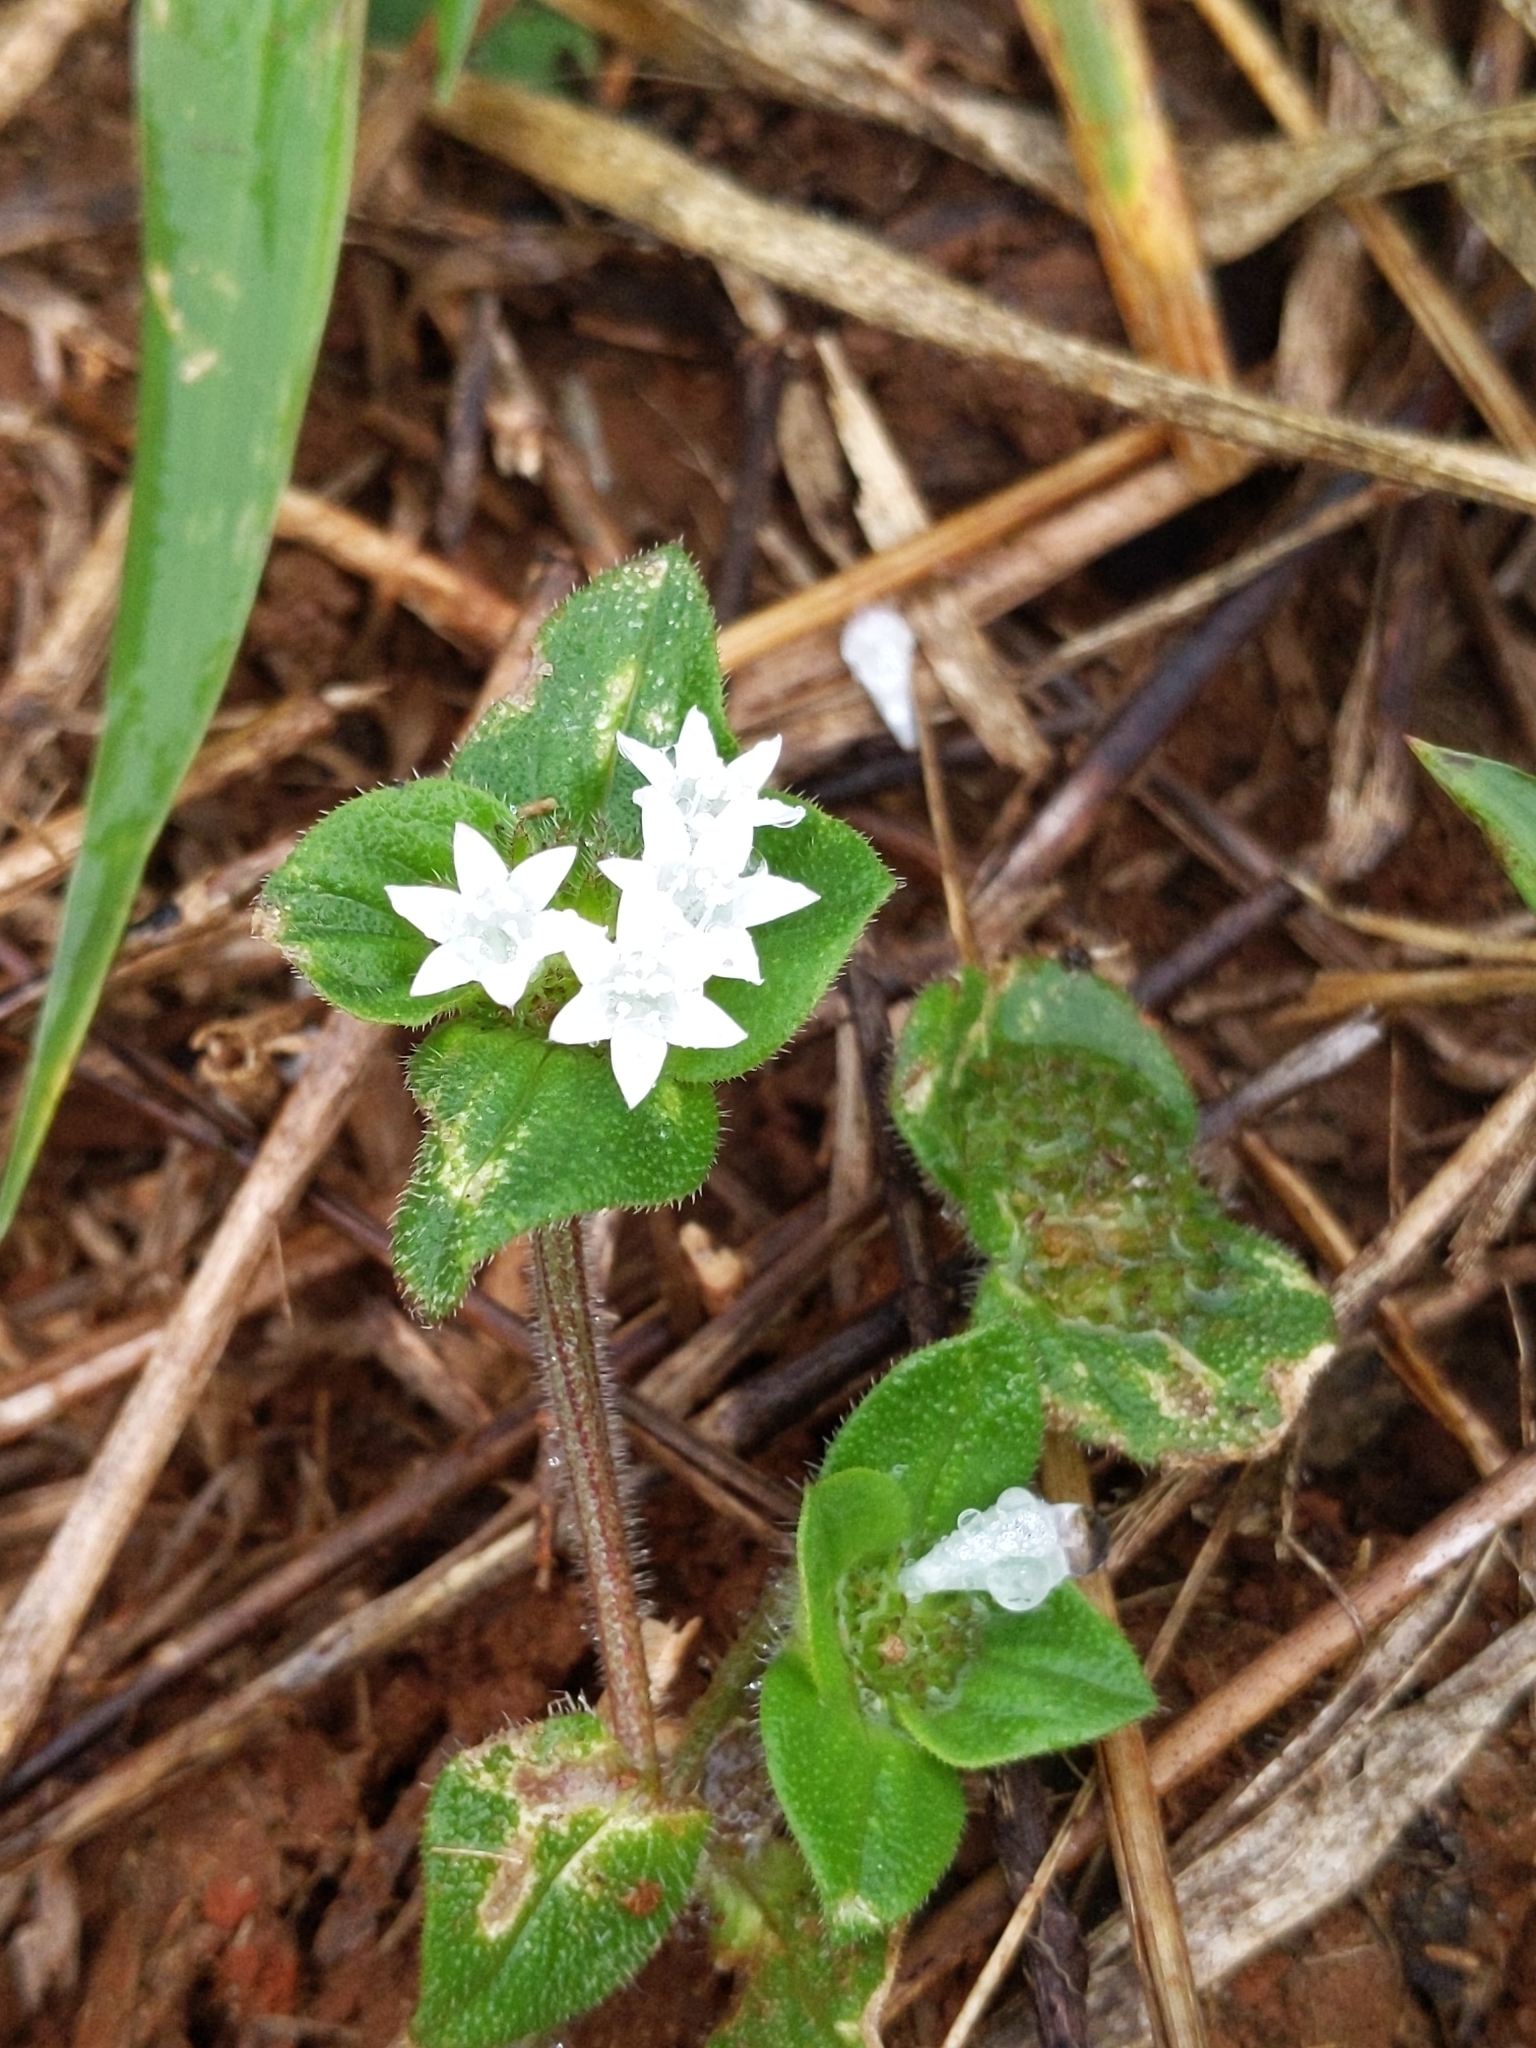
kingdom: Plantae
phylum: Tracheophyta
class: Magnoliopsida
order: Gentianales
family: Rubiaceae
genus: Richardia
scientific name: Richardia brasiliensis
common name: Tropical mexican clover
